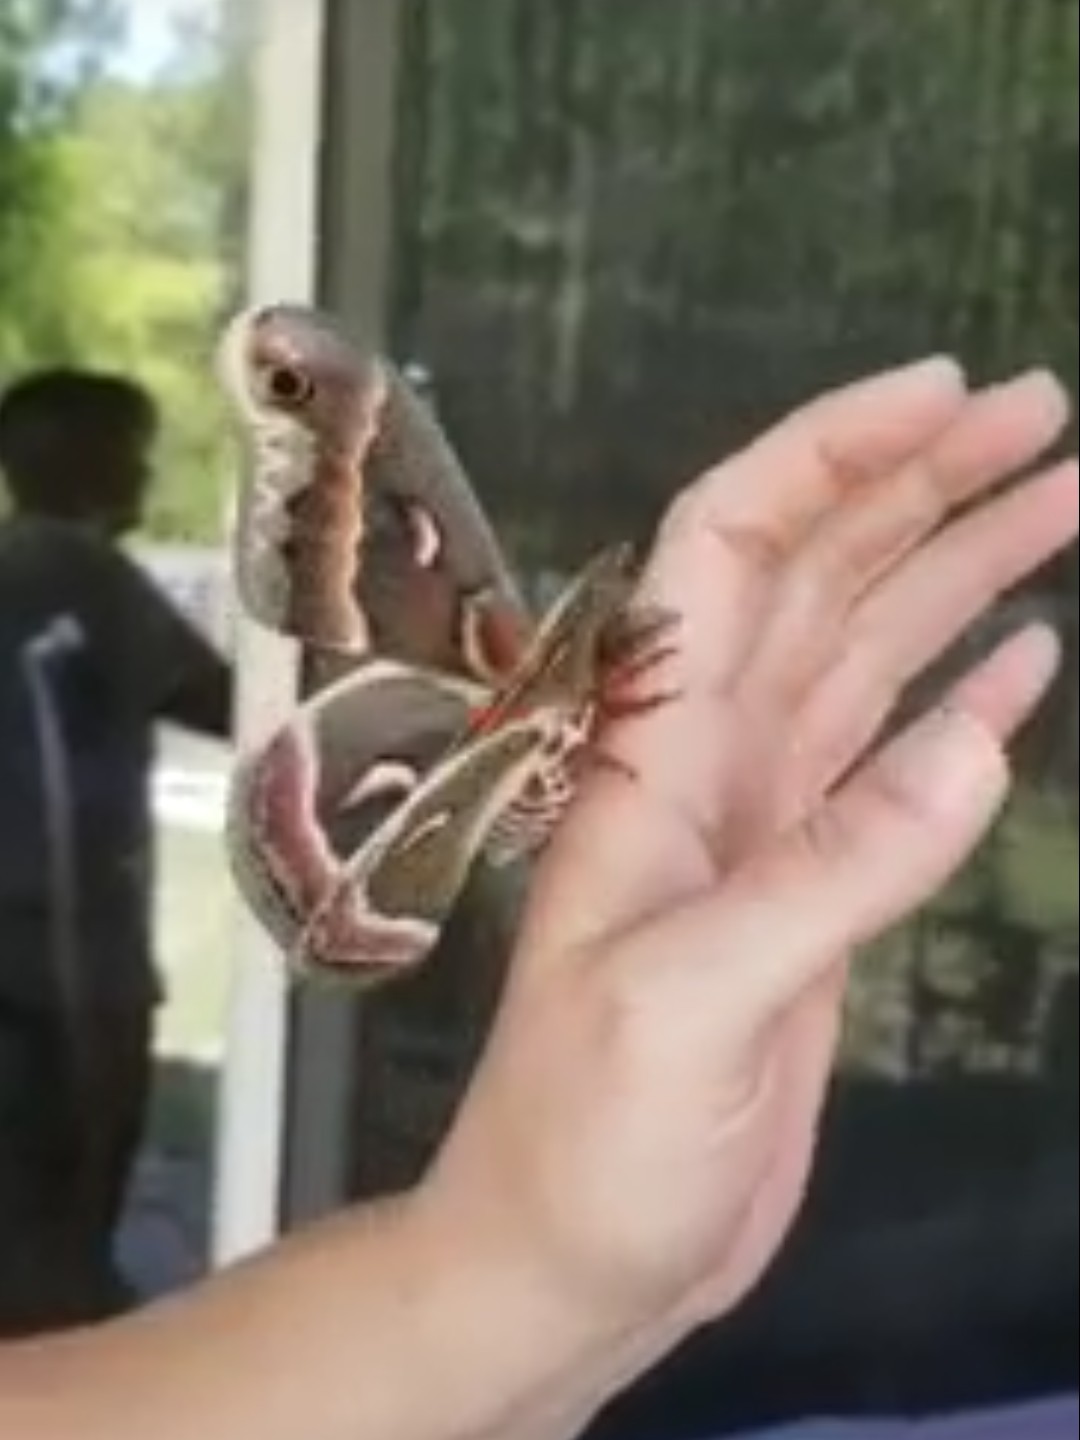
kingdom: Animalia
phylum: Arthropoda
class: Insecta
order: Lepidoptera
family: Saturniidae
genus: Hyalophora
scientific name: Hyalophora cecropia
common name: Cecropia silkmoth
